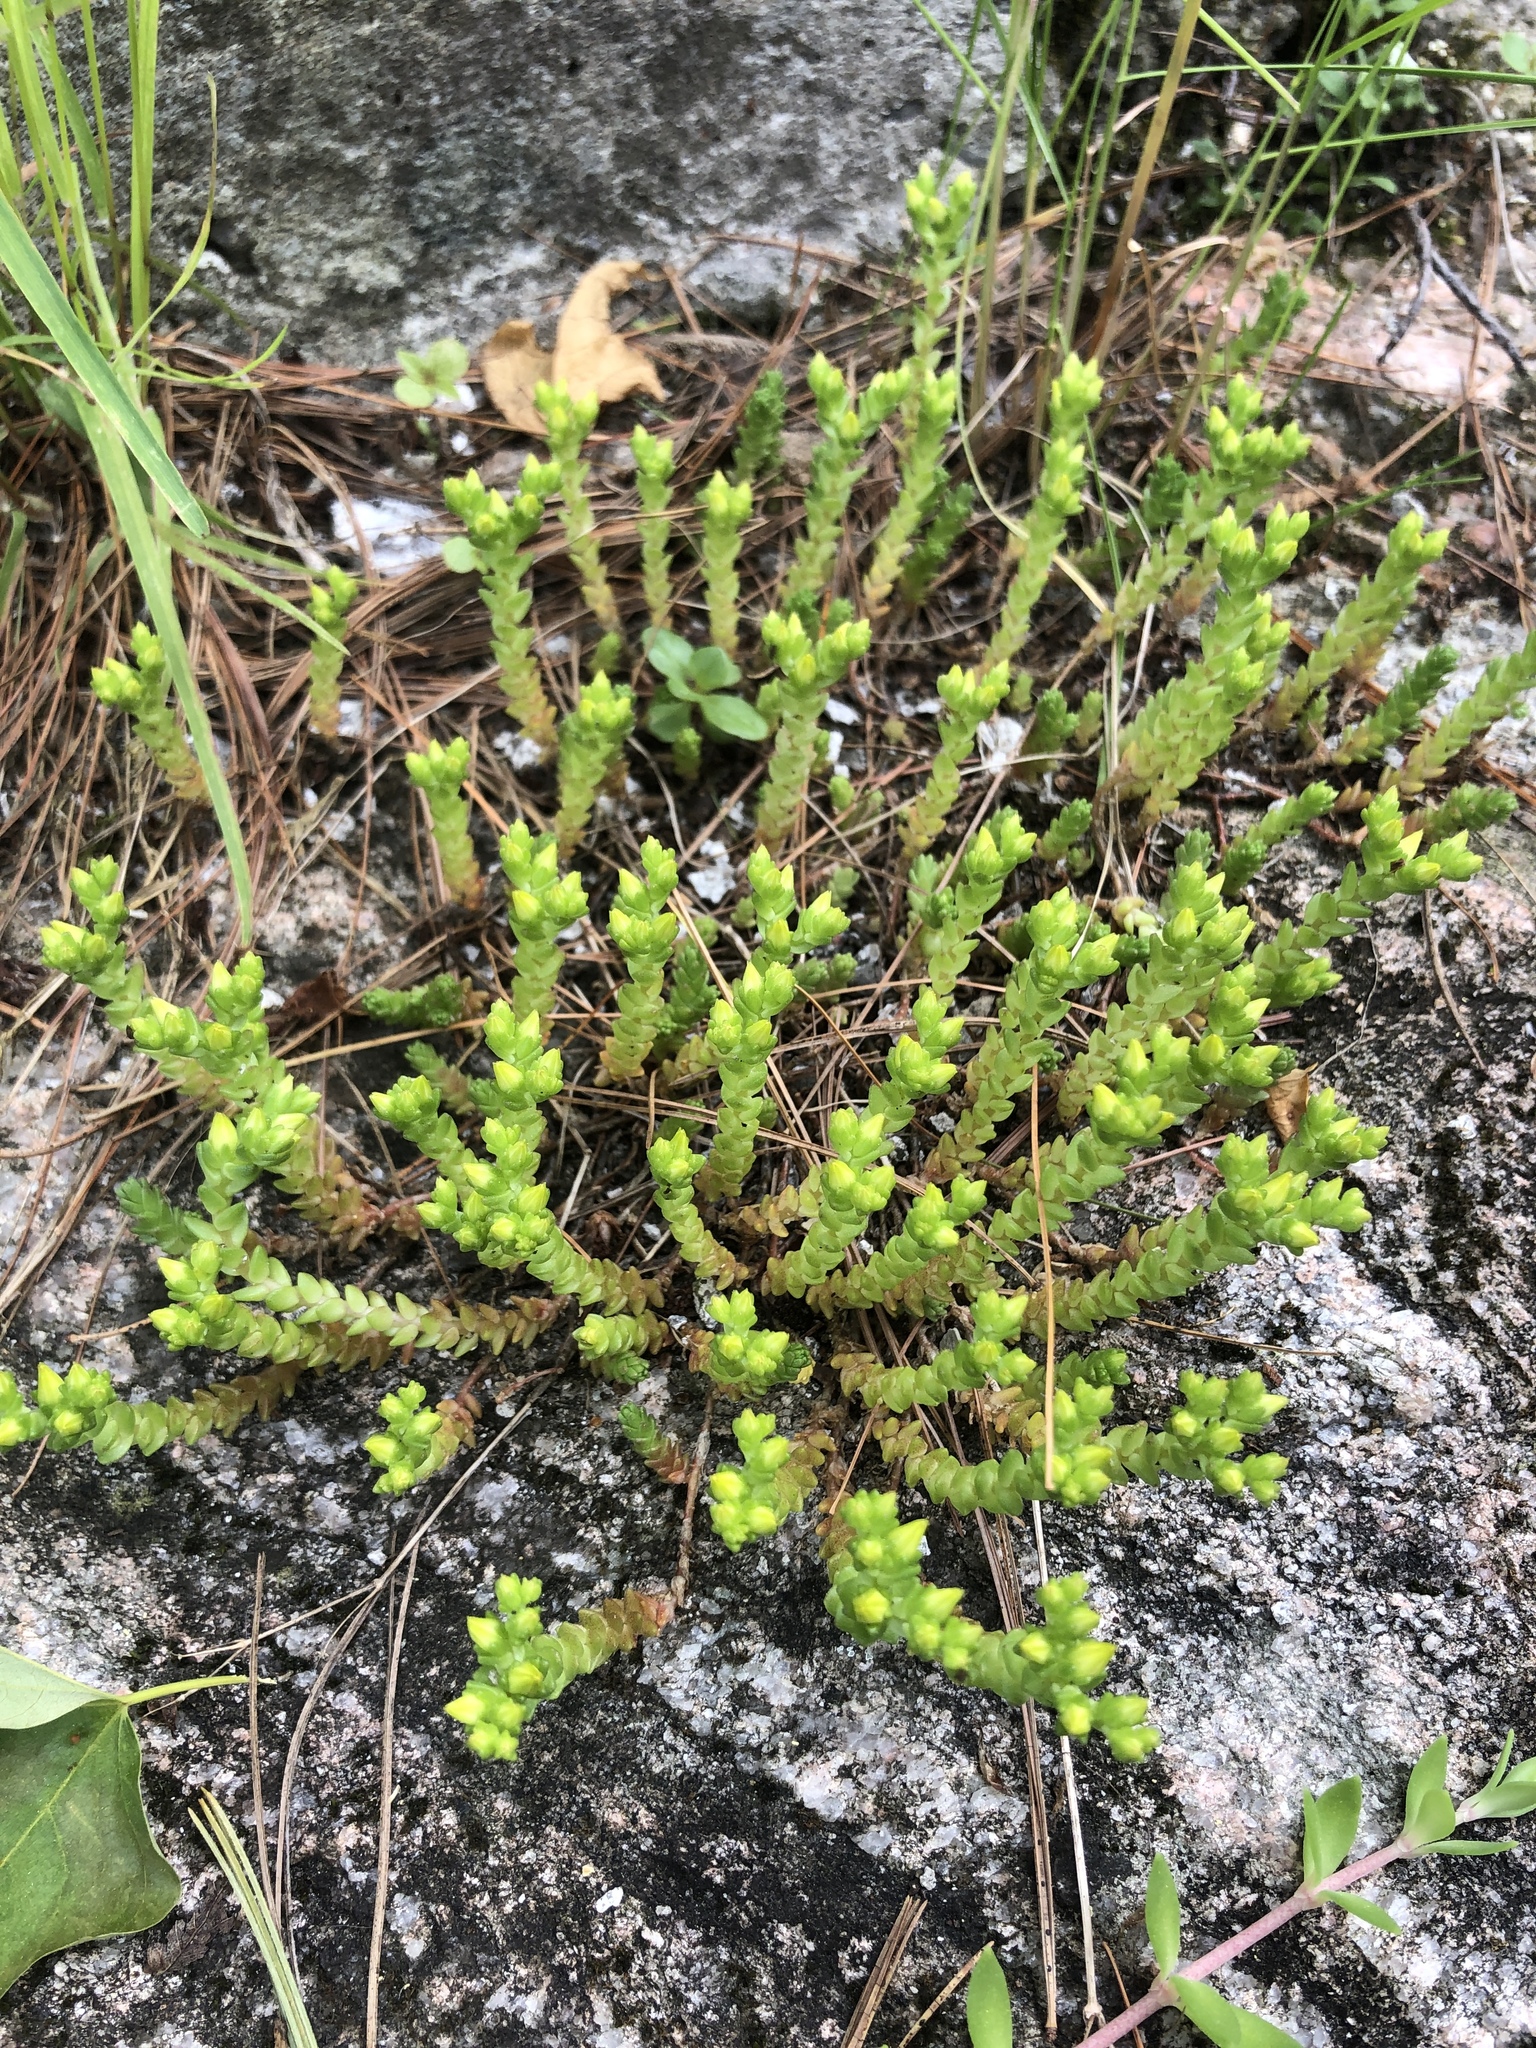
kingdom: Plantae
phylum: Tracheophyta
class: Magnoliopsida
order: Saxifragales
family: Crassulaceae
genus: Sedum
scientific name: Sedum acre
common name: Biting stonecrop
